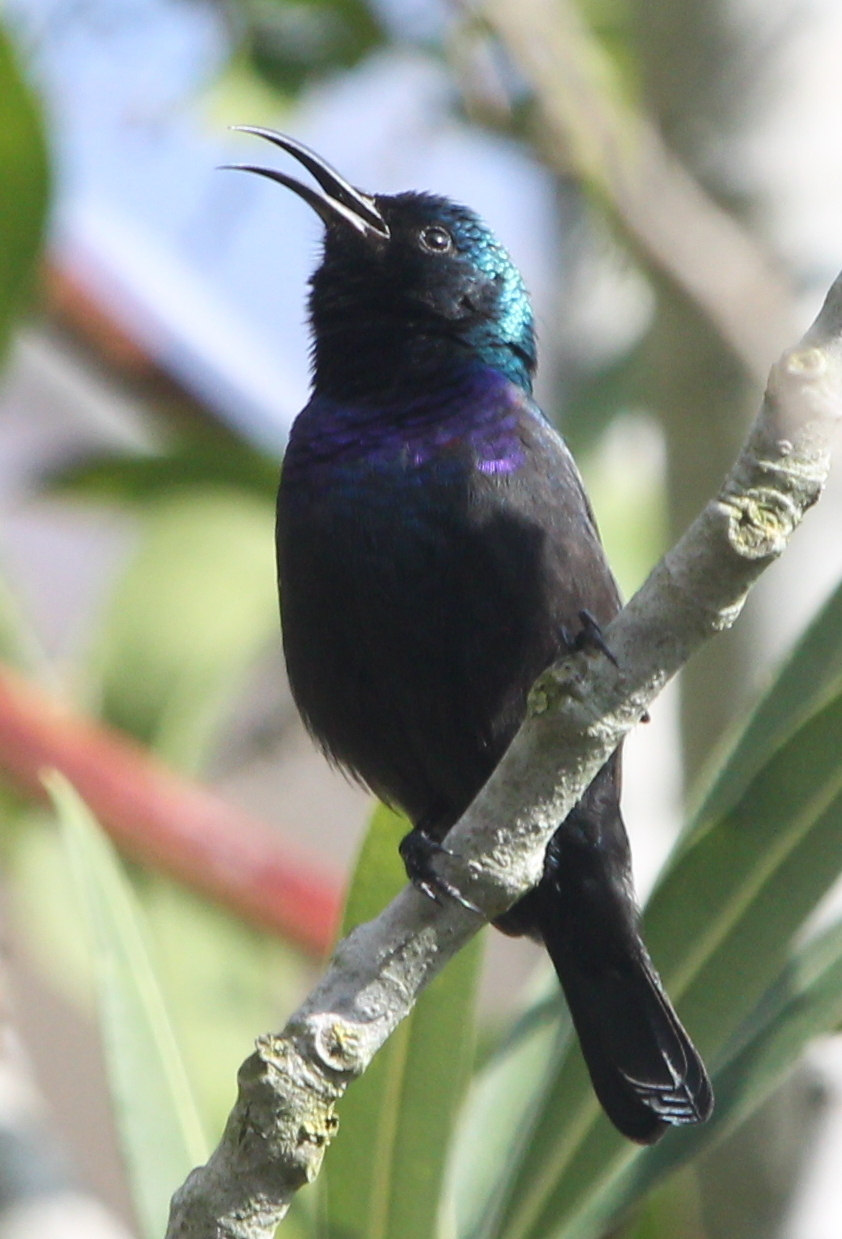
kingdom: Animalia
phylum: Chordata
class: Aves
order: Passeriformes
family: Nectariniidae
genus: Cinnyris
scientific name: Cinnyris osea
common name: Palestine sunbird
